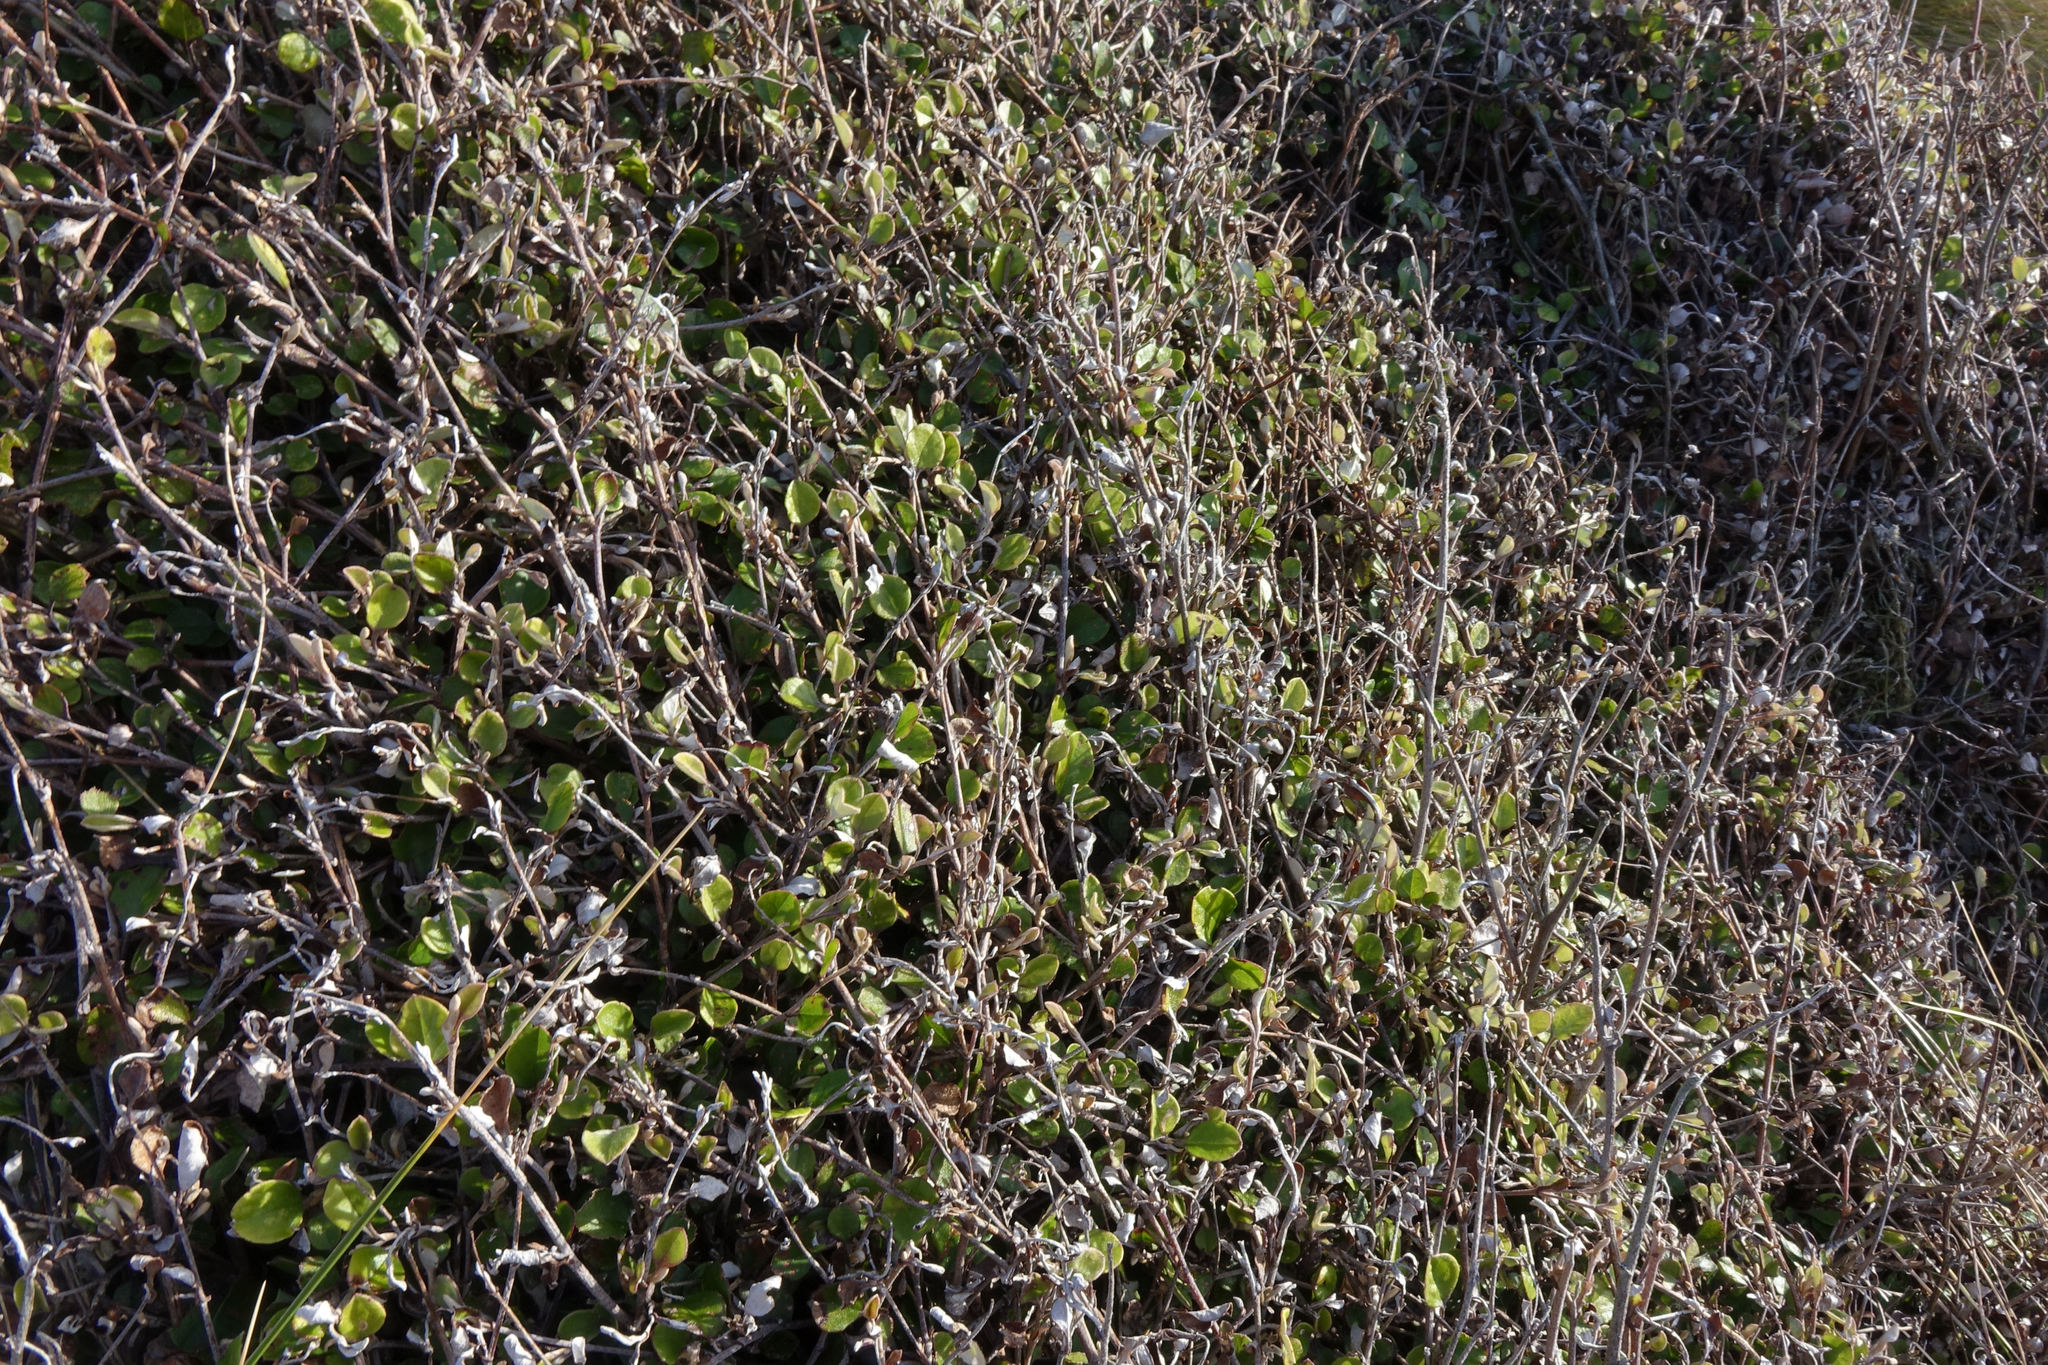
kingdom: Plantae
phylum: Tracheophyta
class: Magnoliopsida
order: Asterales
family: Asteraceae
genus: Ozothamnus
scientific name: Ozothamnus glomeratus
